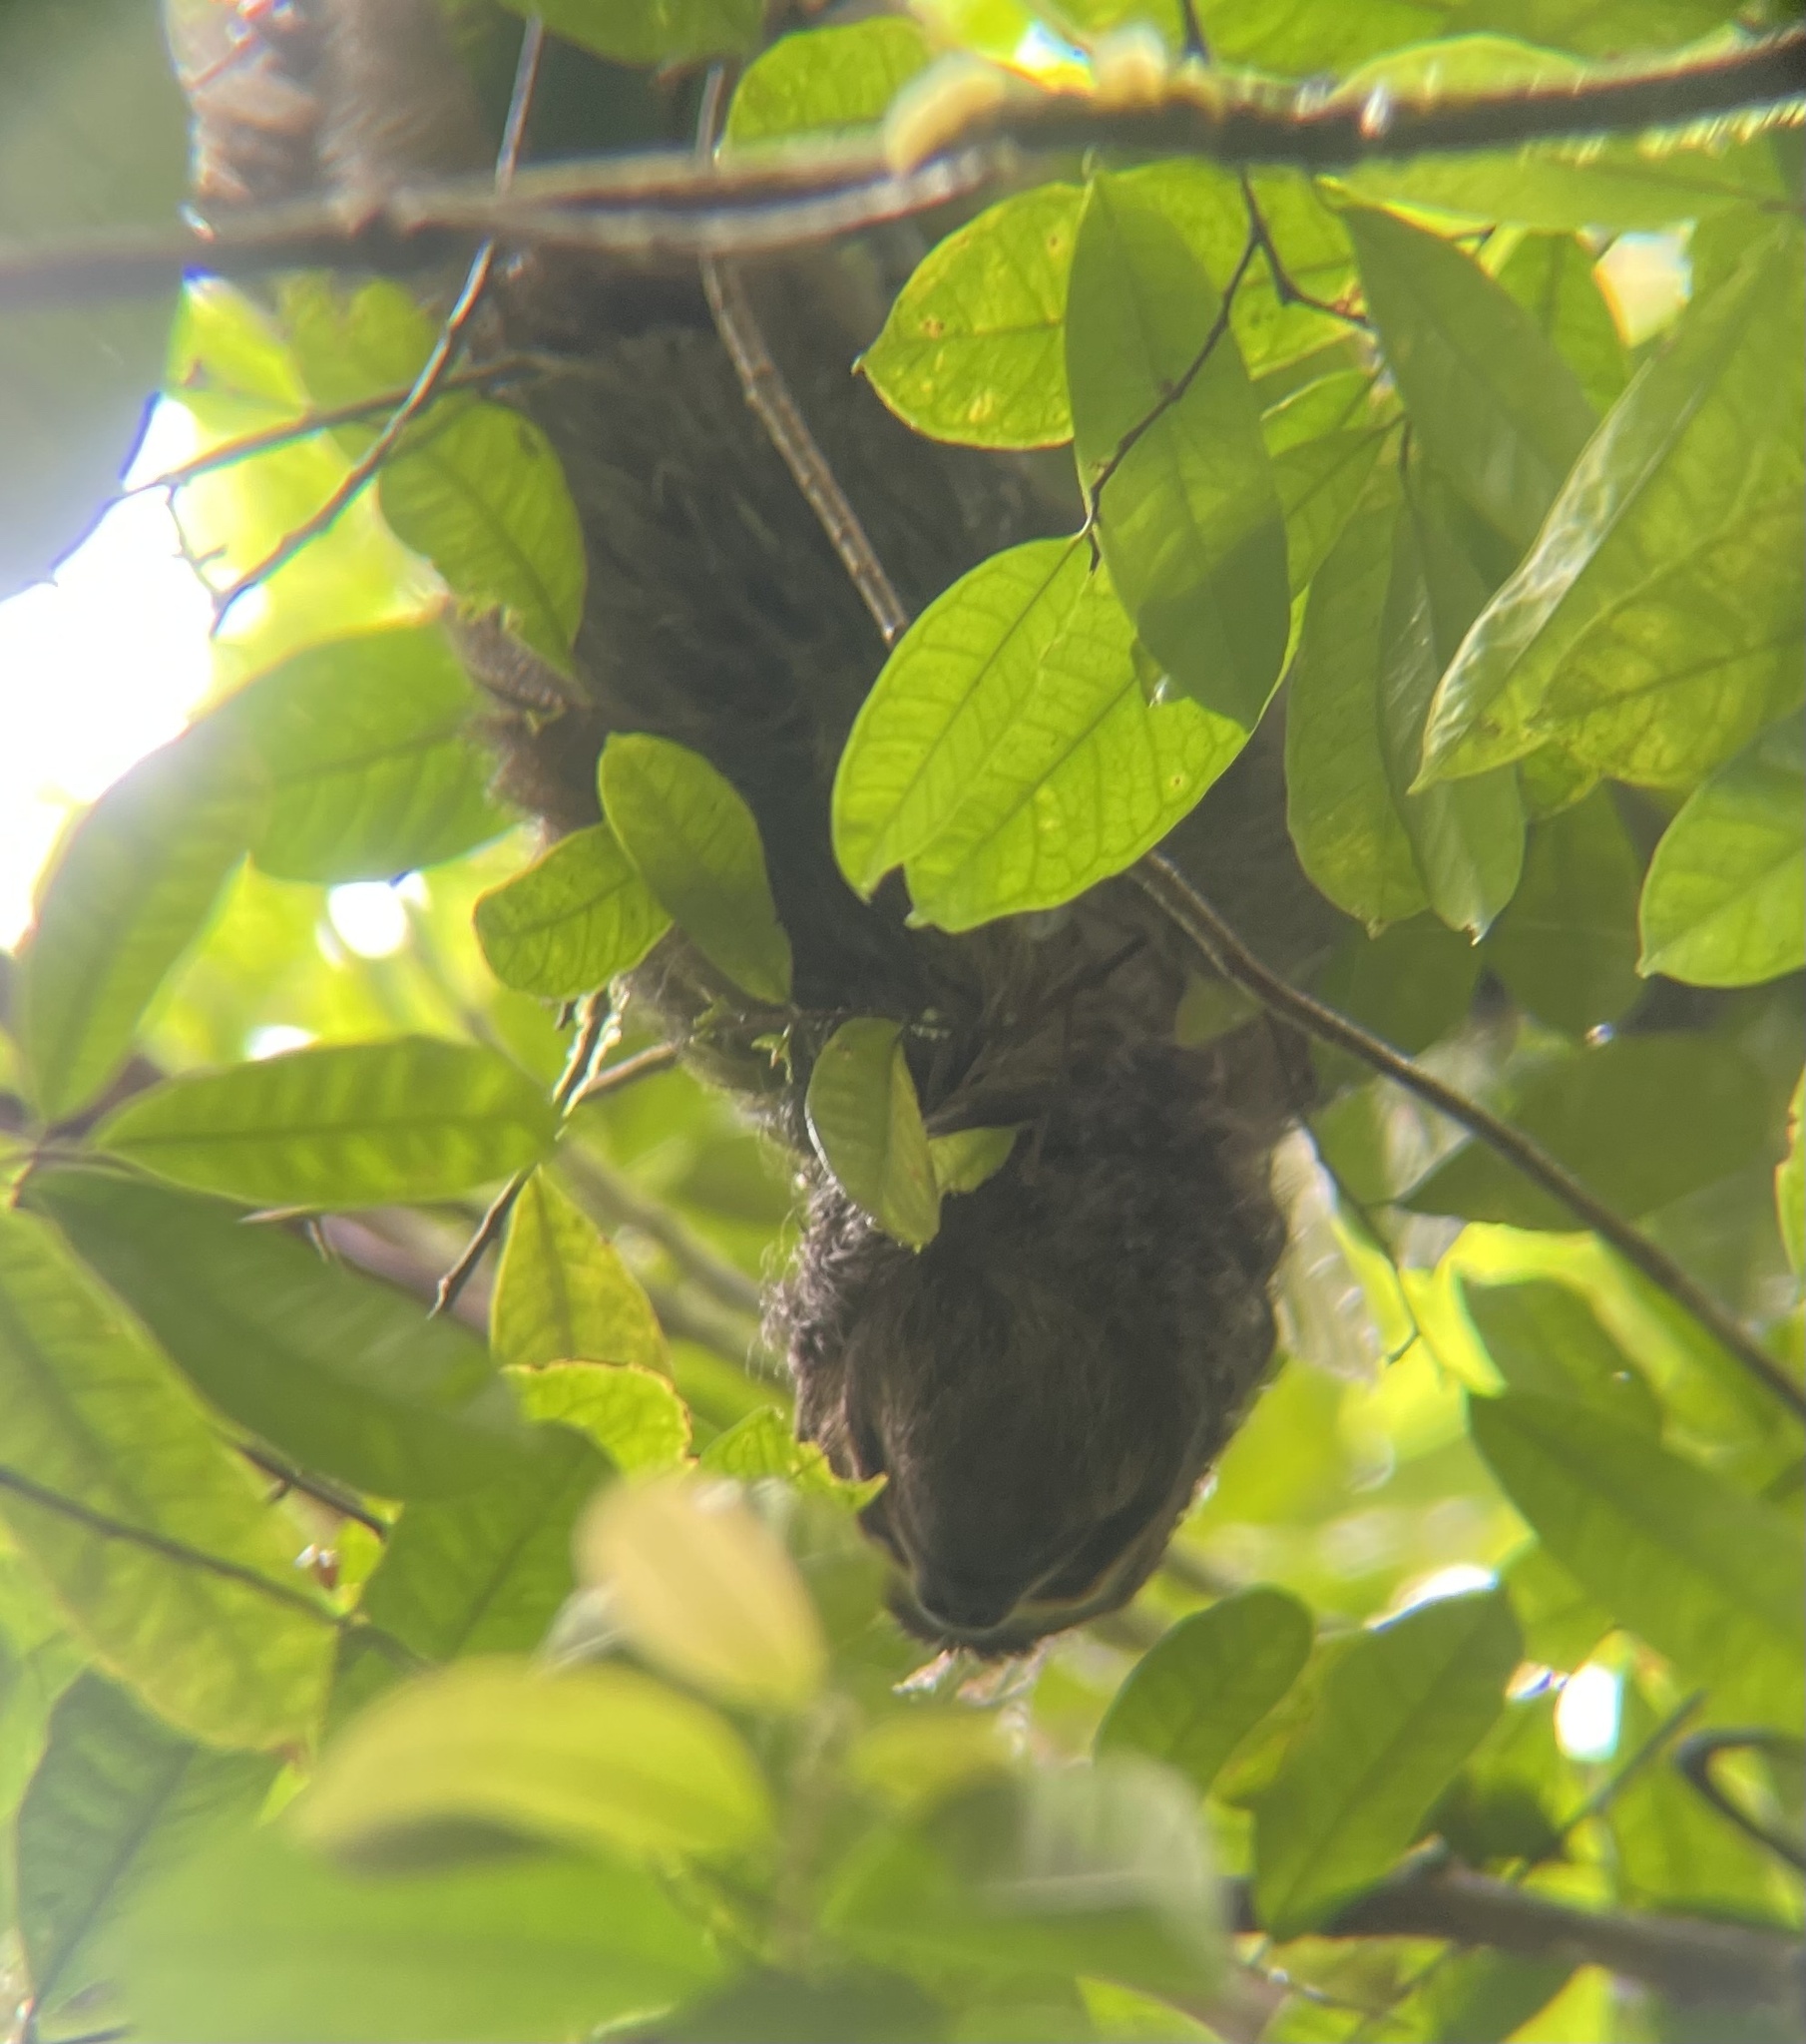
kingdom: Animalia
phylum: Chordata
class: Mammalia
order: Pilosa
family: Bradypodidae
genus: Bradypus
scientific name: Bradypus variegatus
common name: Brown-throated three-toed sloth
